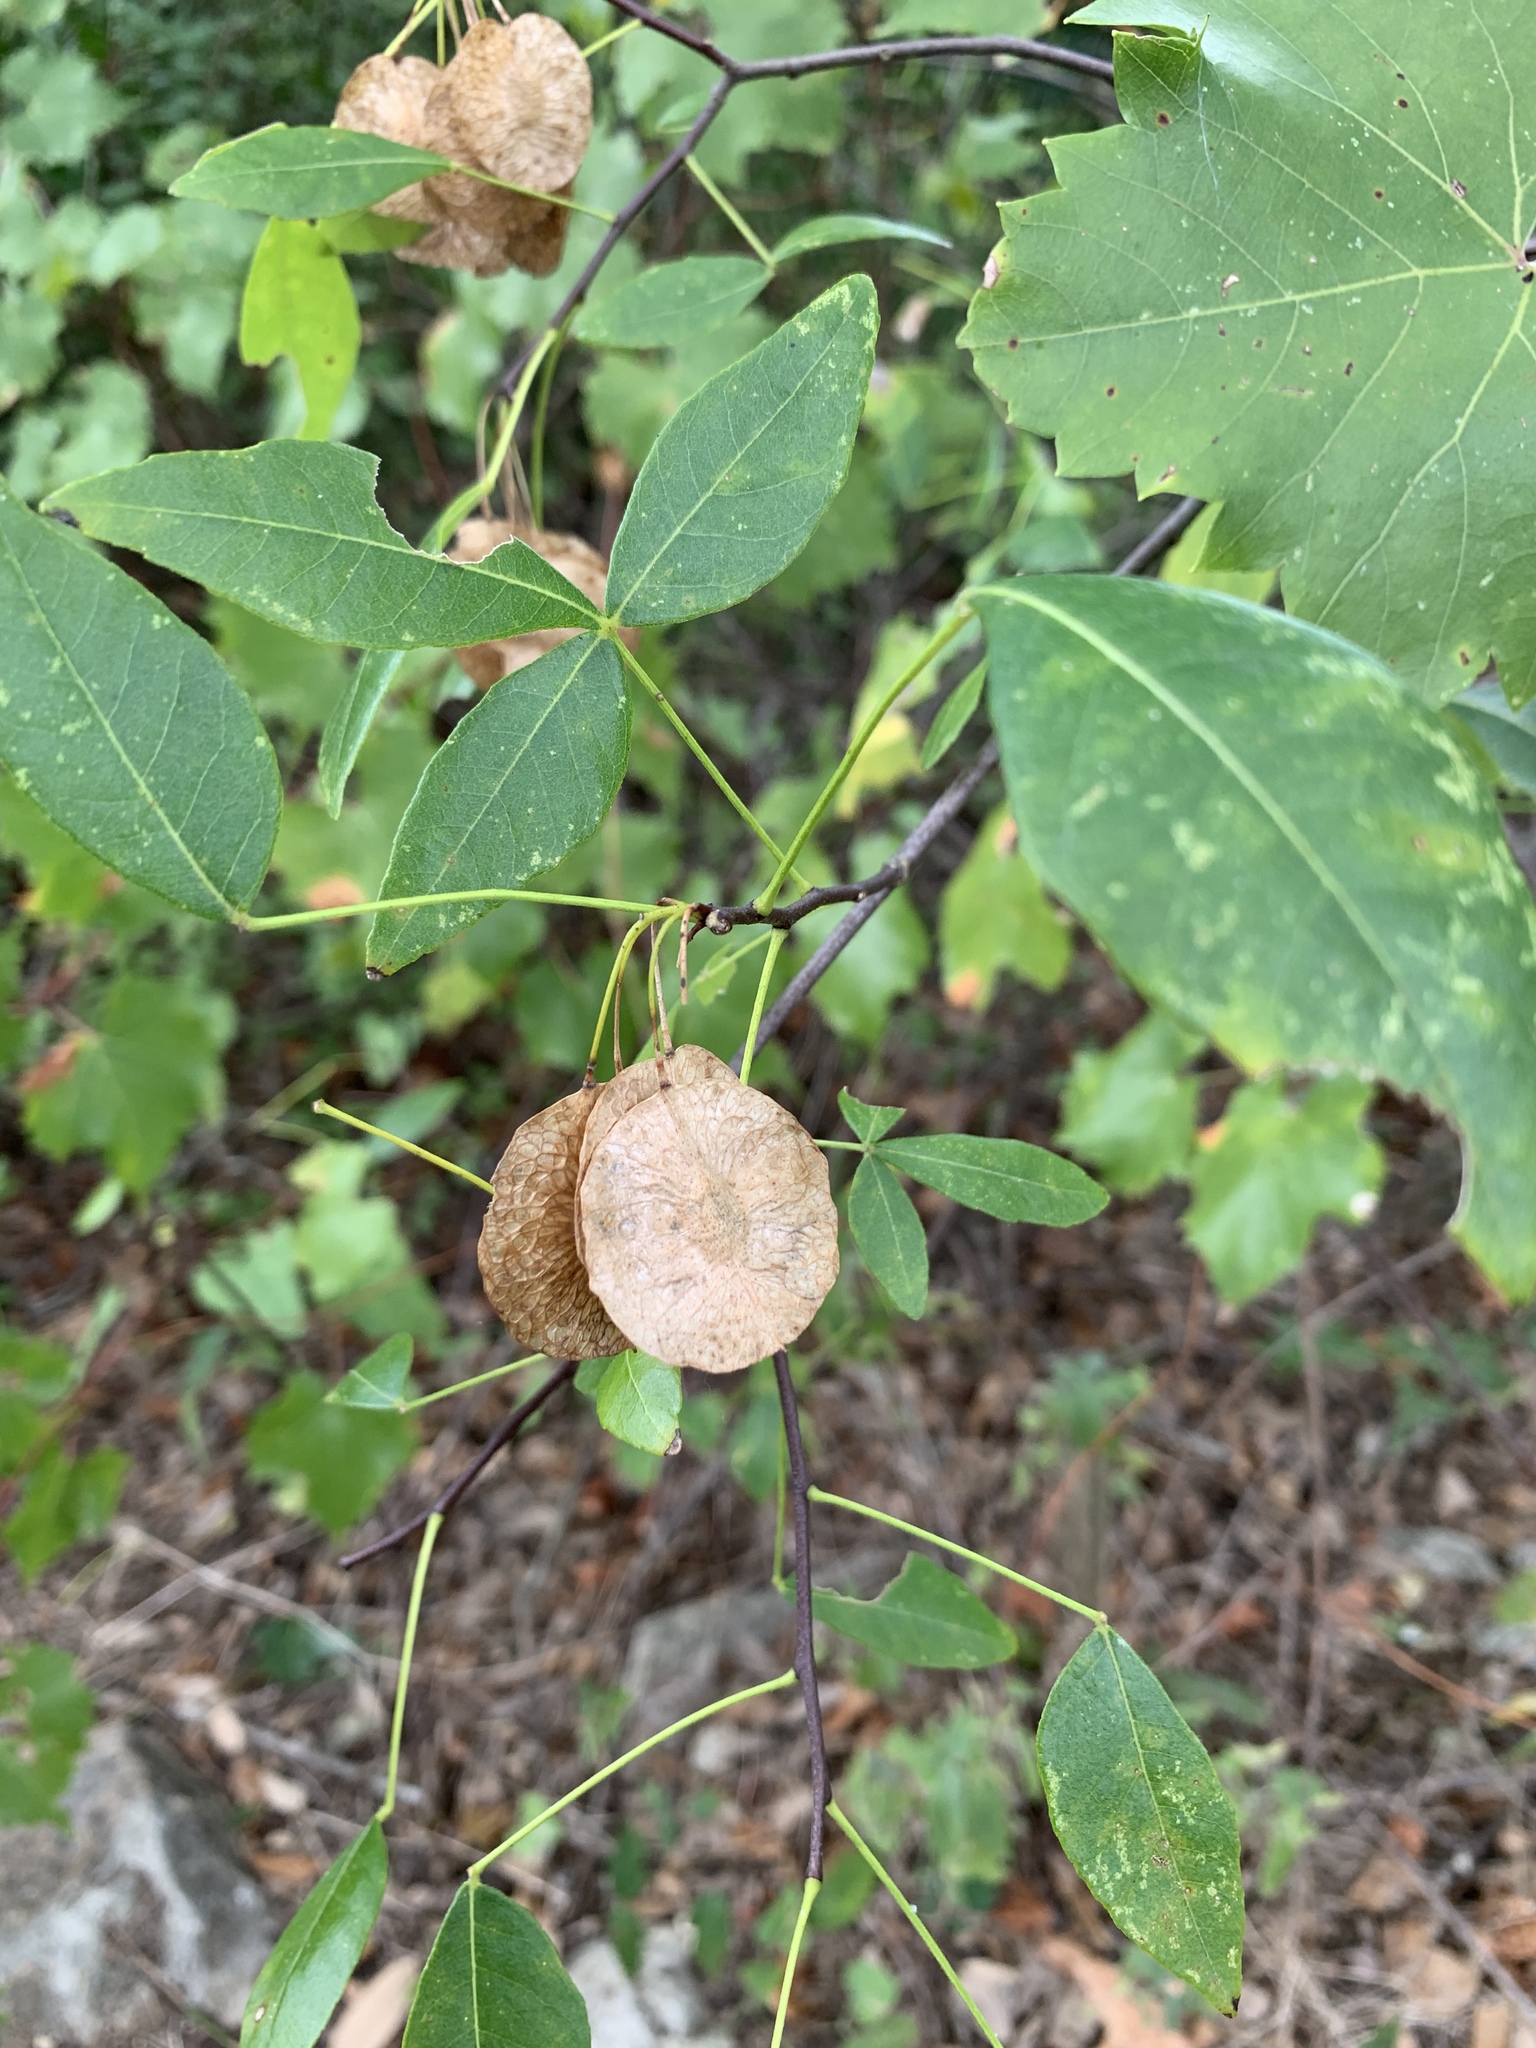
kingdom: Plantae
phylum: Tracheophyta
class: Magnoliopsida
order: Sapindales
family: Rutaceae
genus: Ptelea
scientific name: Ptelea trifoliata
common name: Common hop-tree
